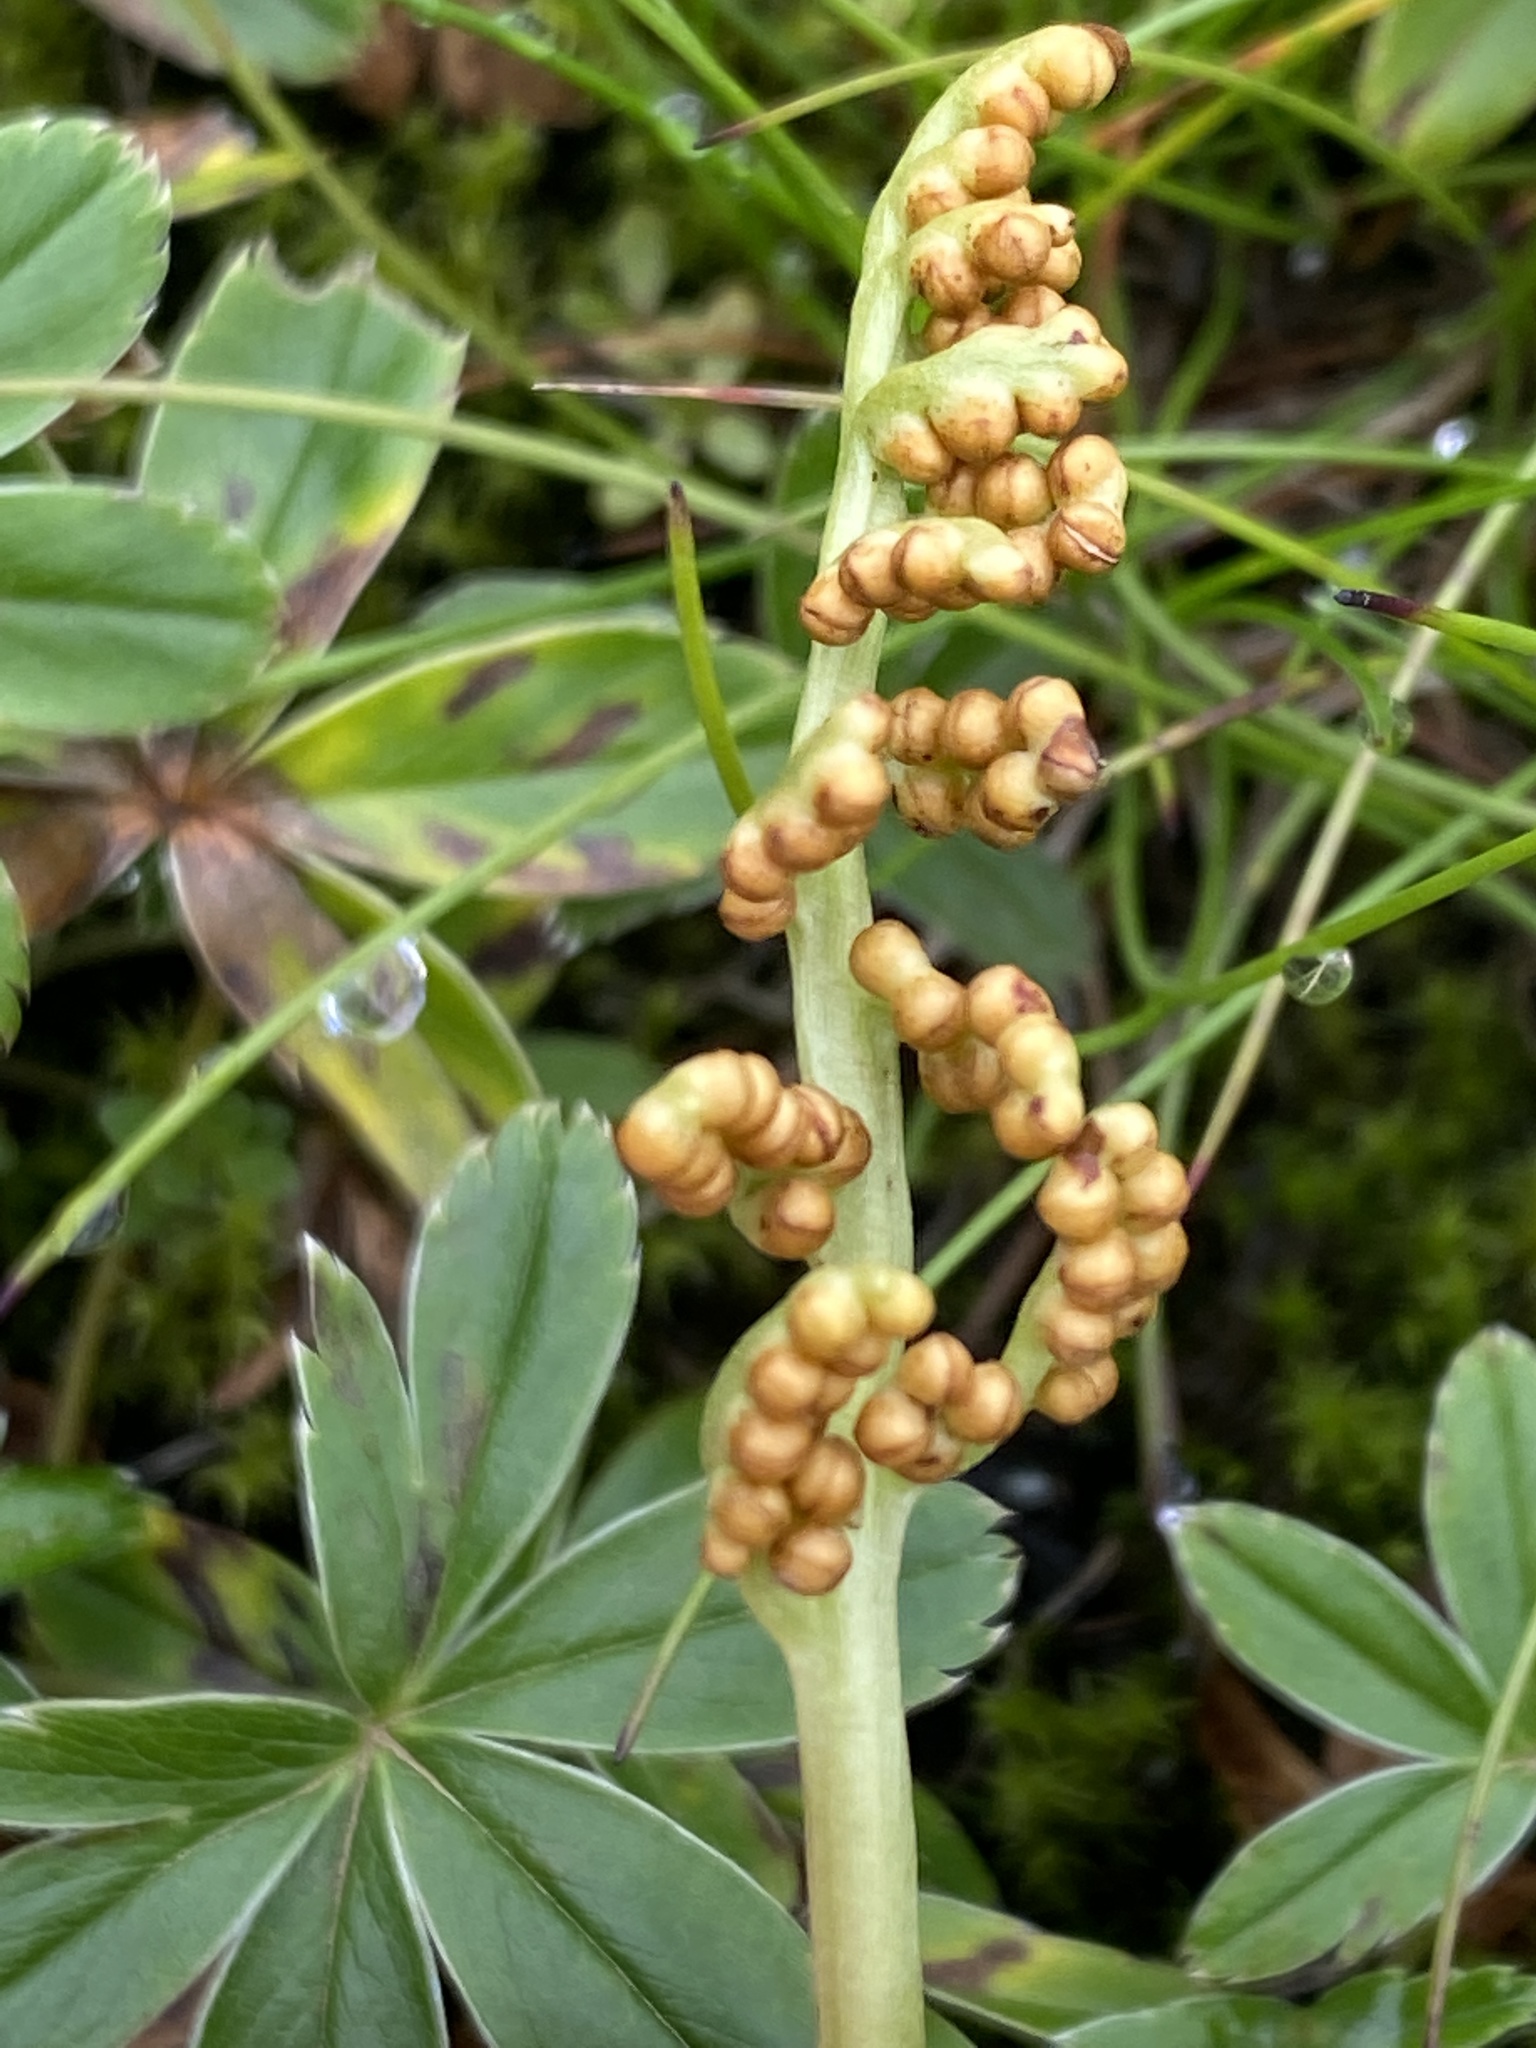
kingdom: Plantae
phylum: Tracheophyta
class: Polypodiopsida
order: Ophioglossales
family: Ophioglossaceae
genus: Botrychium
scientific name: Botrychium lunaria
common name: Moonwort
